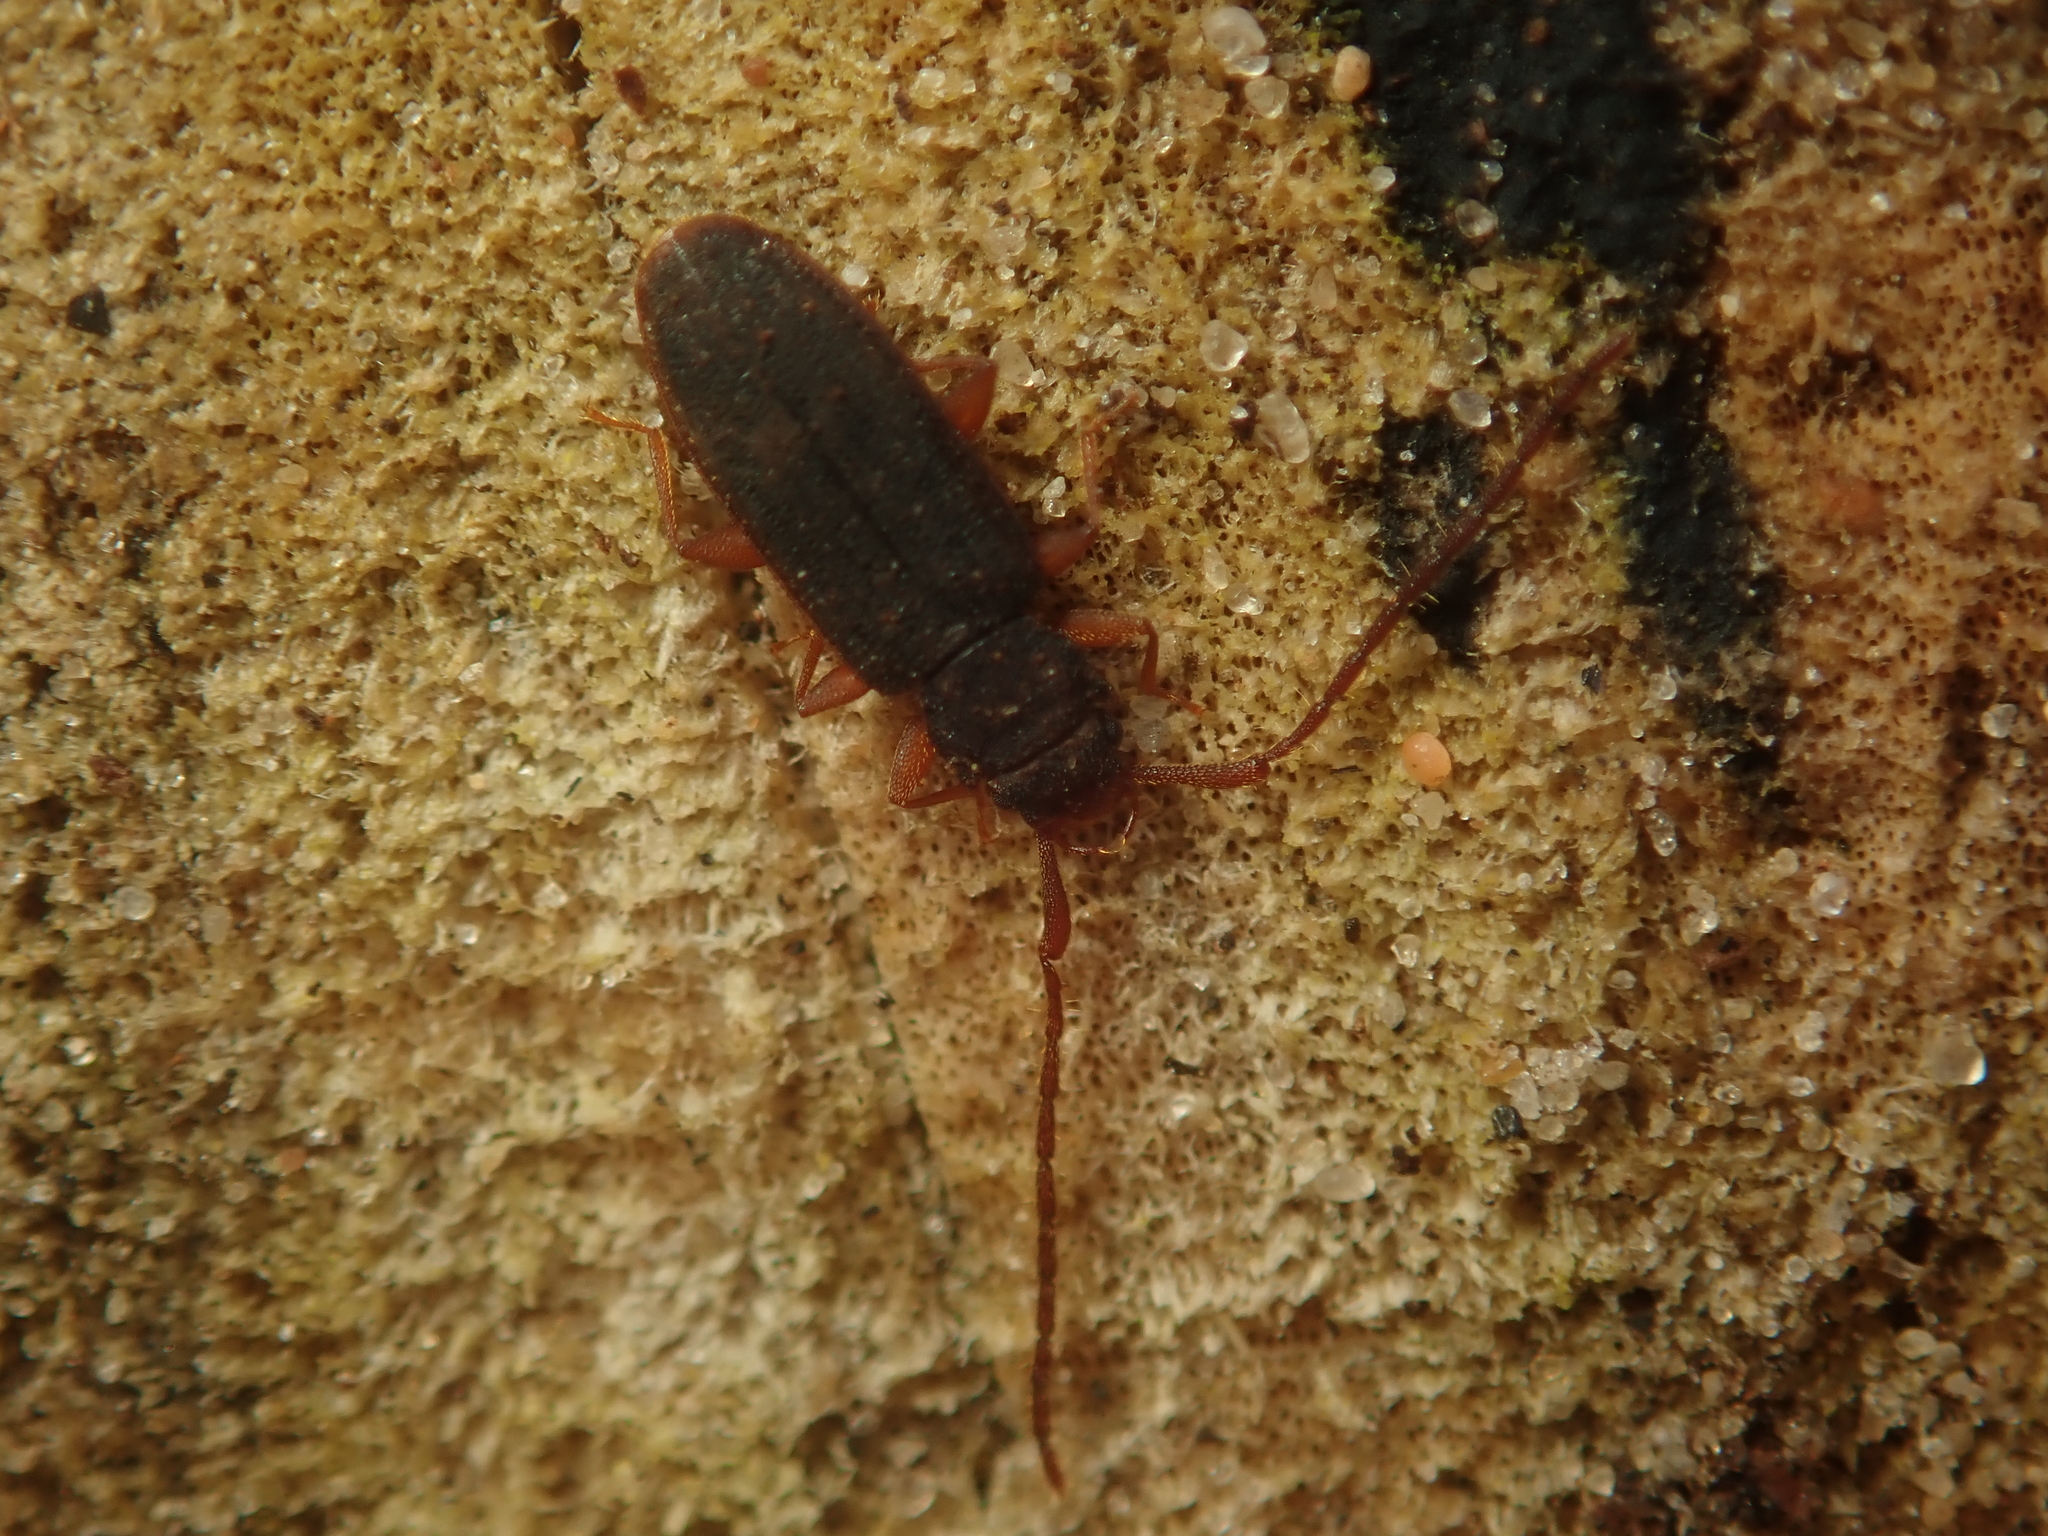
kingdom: Animalia
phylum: Arthropoda
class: Insecta
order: Coleoptera
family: Silvanidae
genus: Uleiota
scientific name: Uleiota planatus
